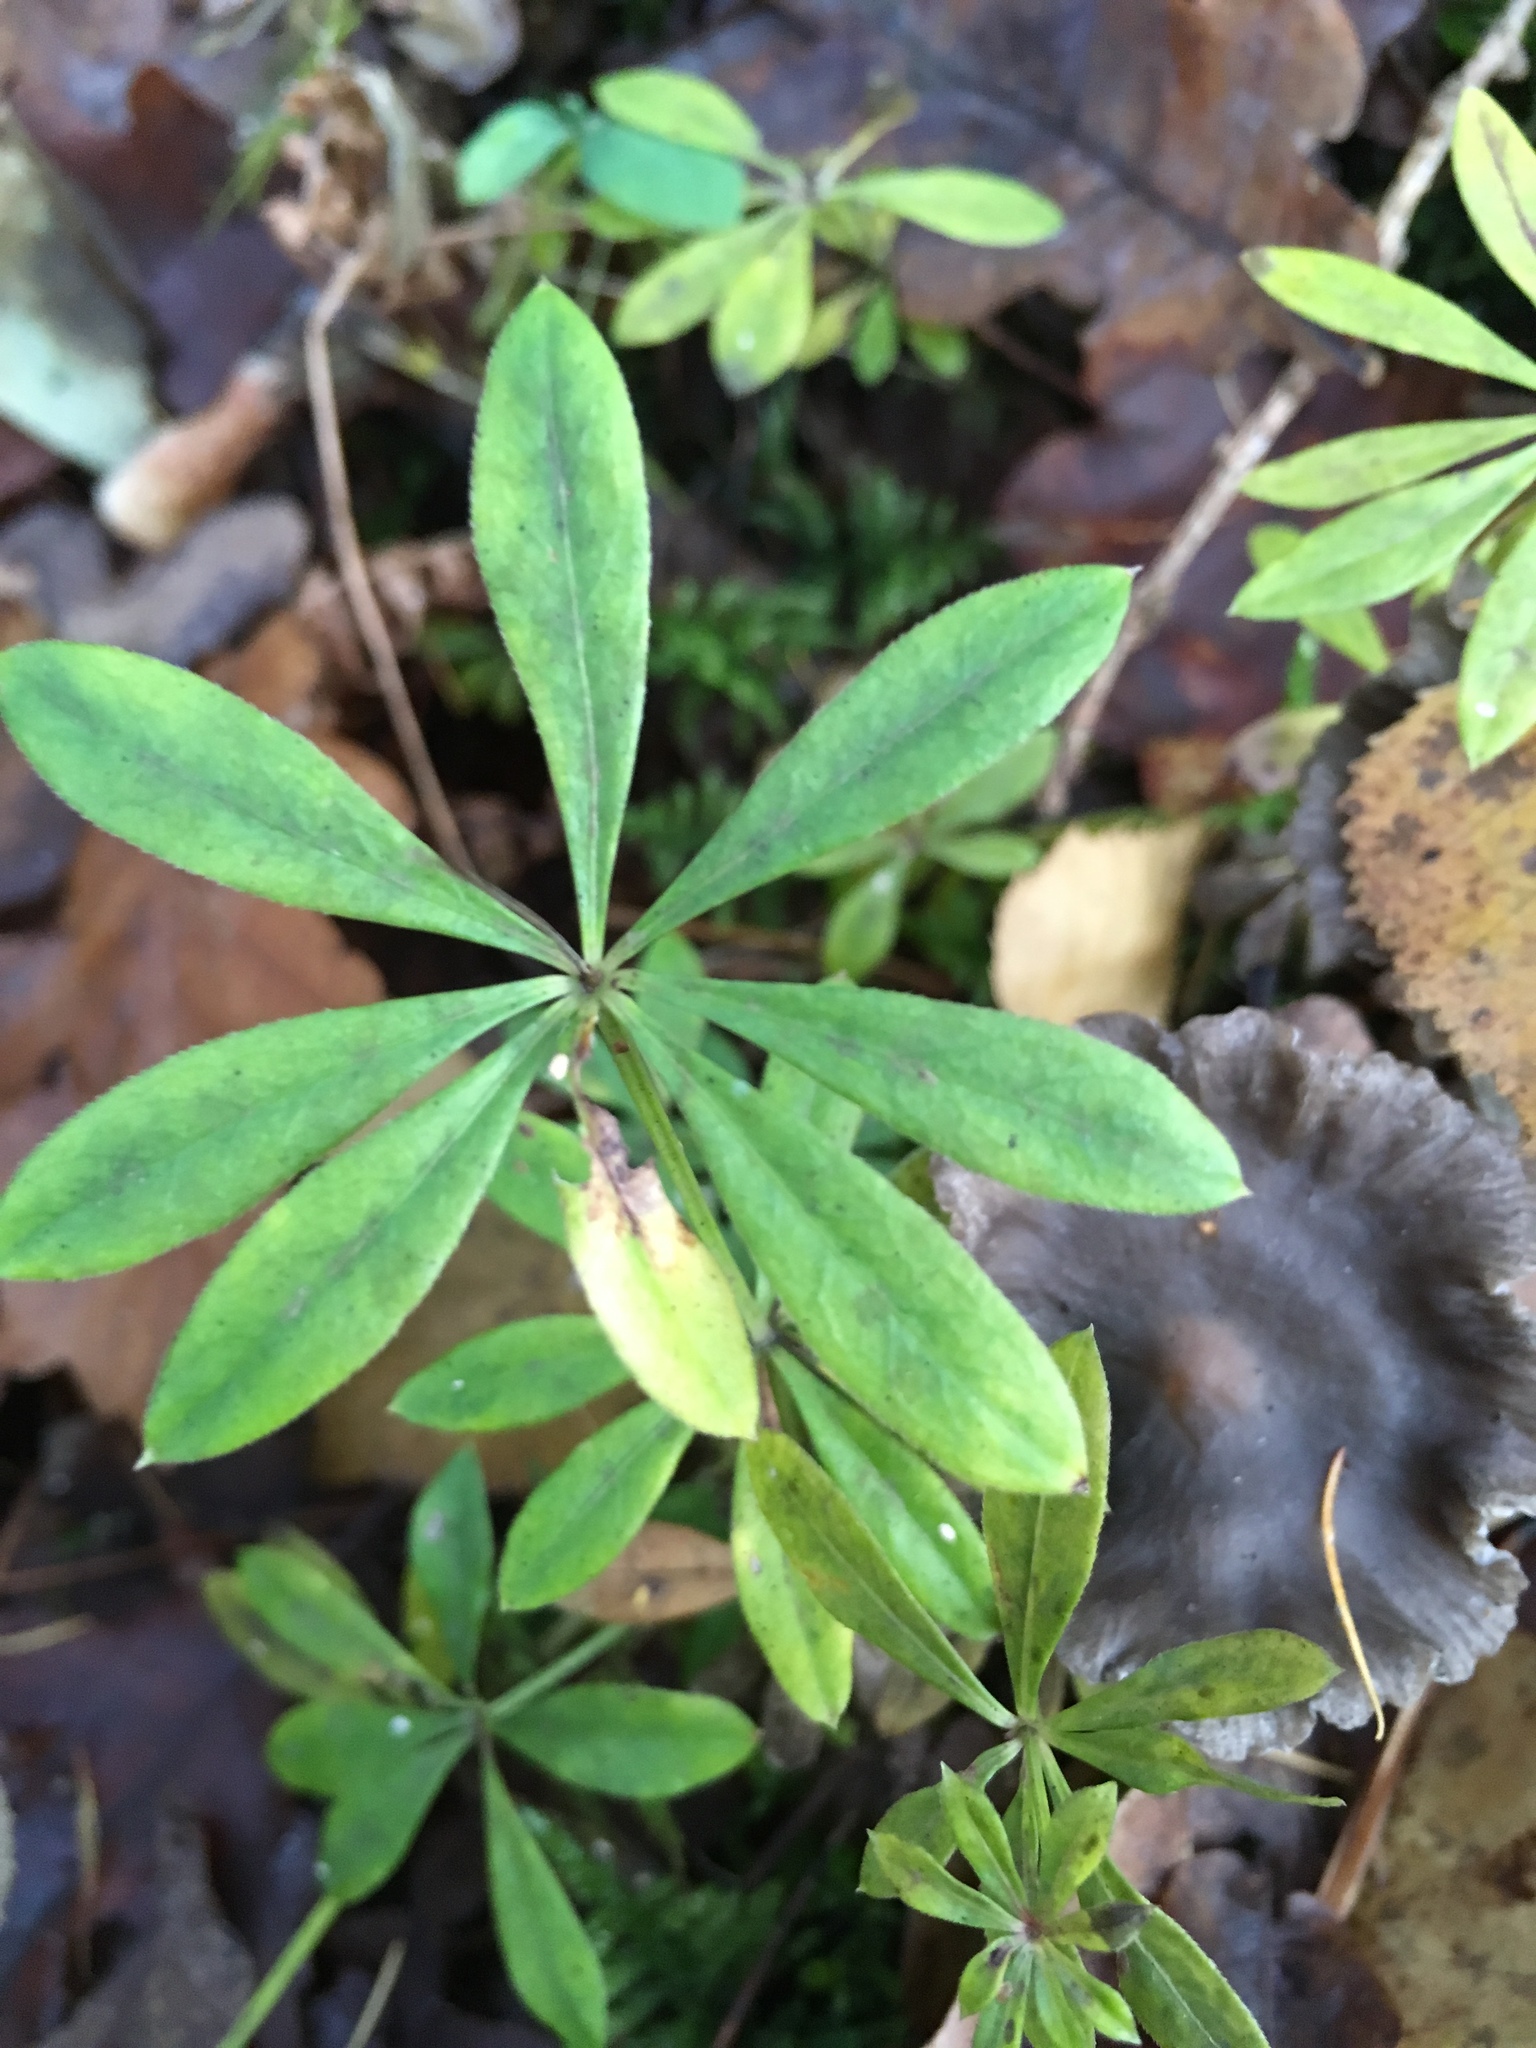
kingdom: Plantae
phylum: Tracheophyta
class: Magnoliopsida
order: Gentianales
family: Rubiaceae
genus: Galium
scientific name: Galium odoratum
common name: Sweet woodruff
